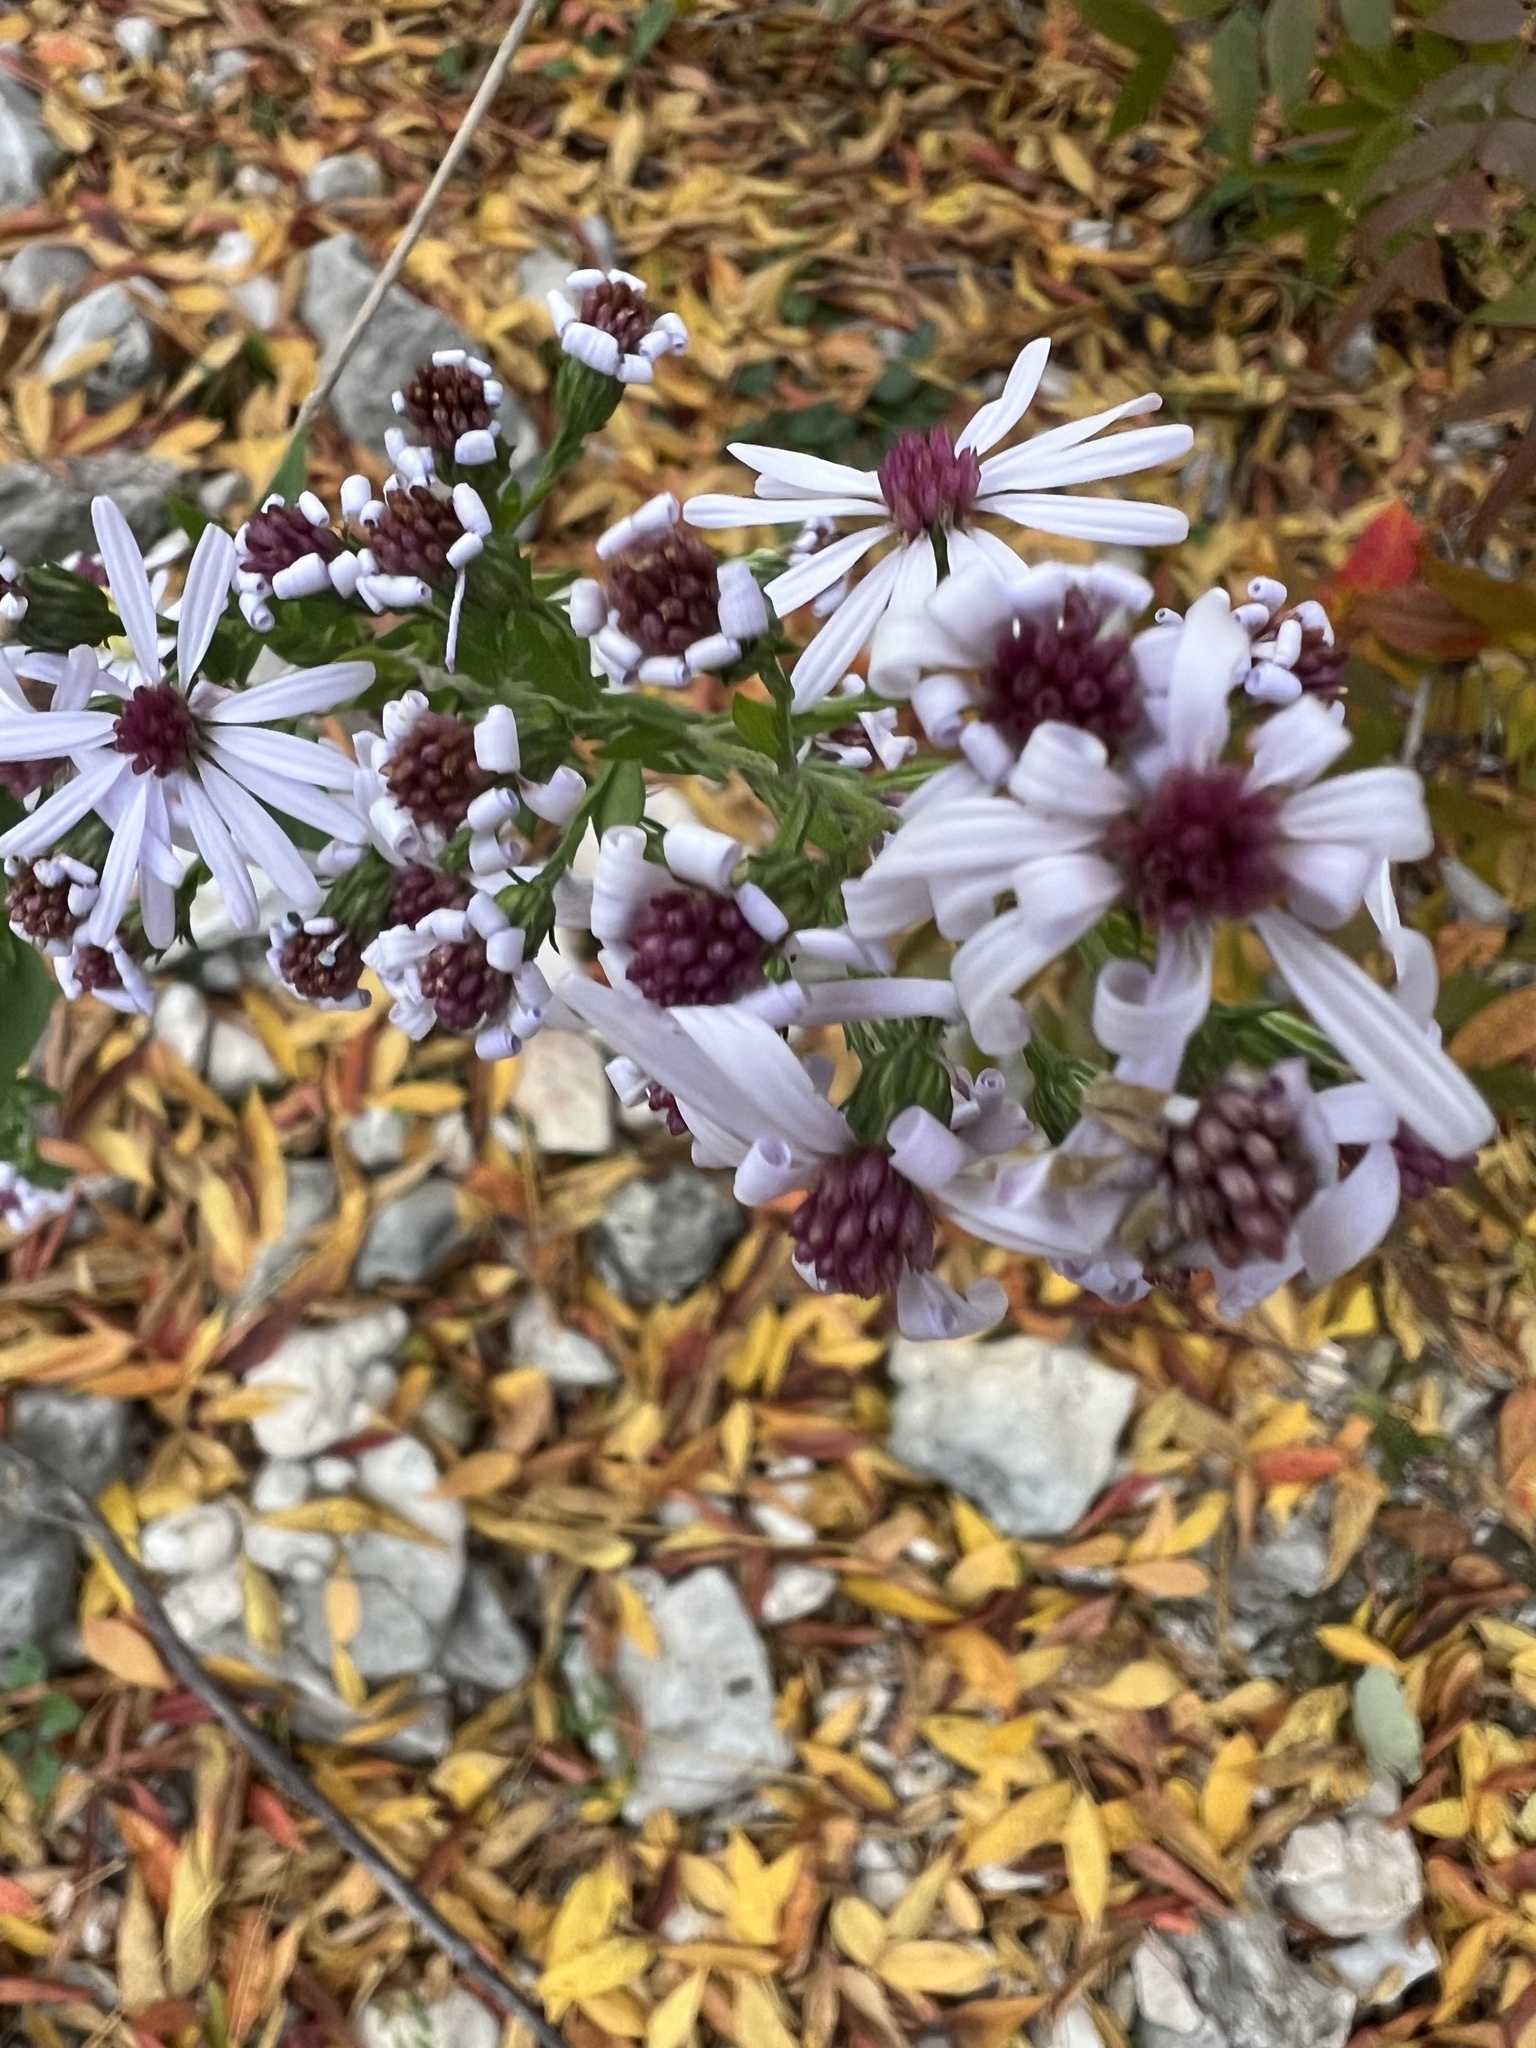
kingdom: Plantae
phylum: Tracheophyta
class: Magnoliopsida
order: Asterales
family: Asteraceae
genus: Symphyotrichum
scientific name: Symphyotrichum drummondii
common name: Drummond's aster
